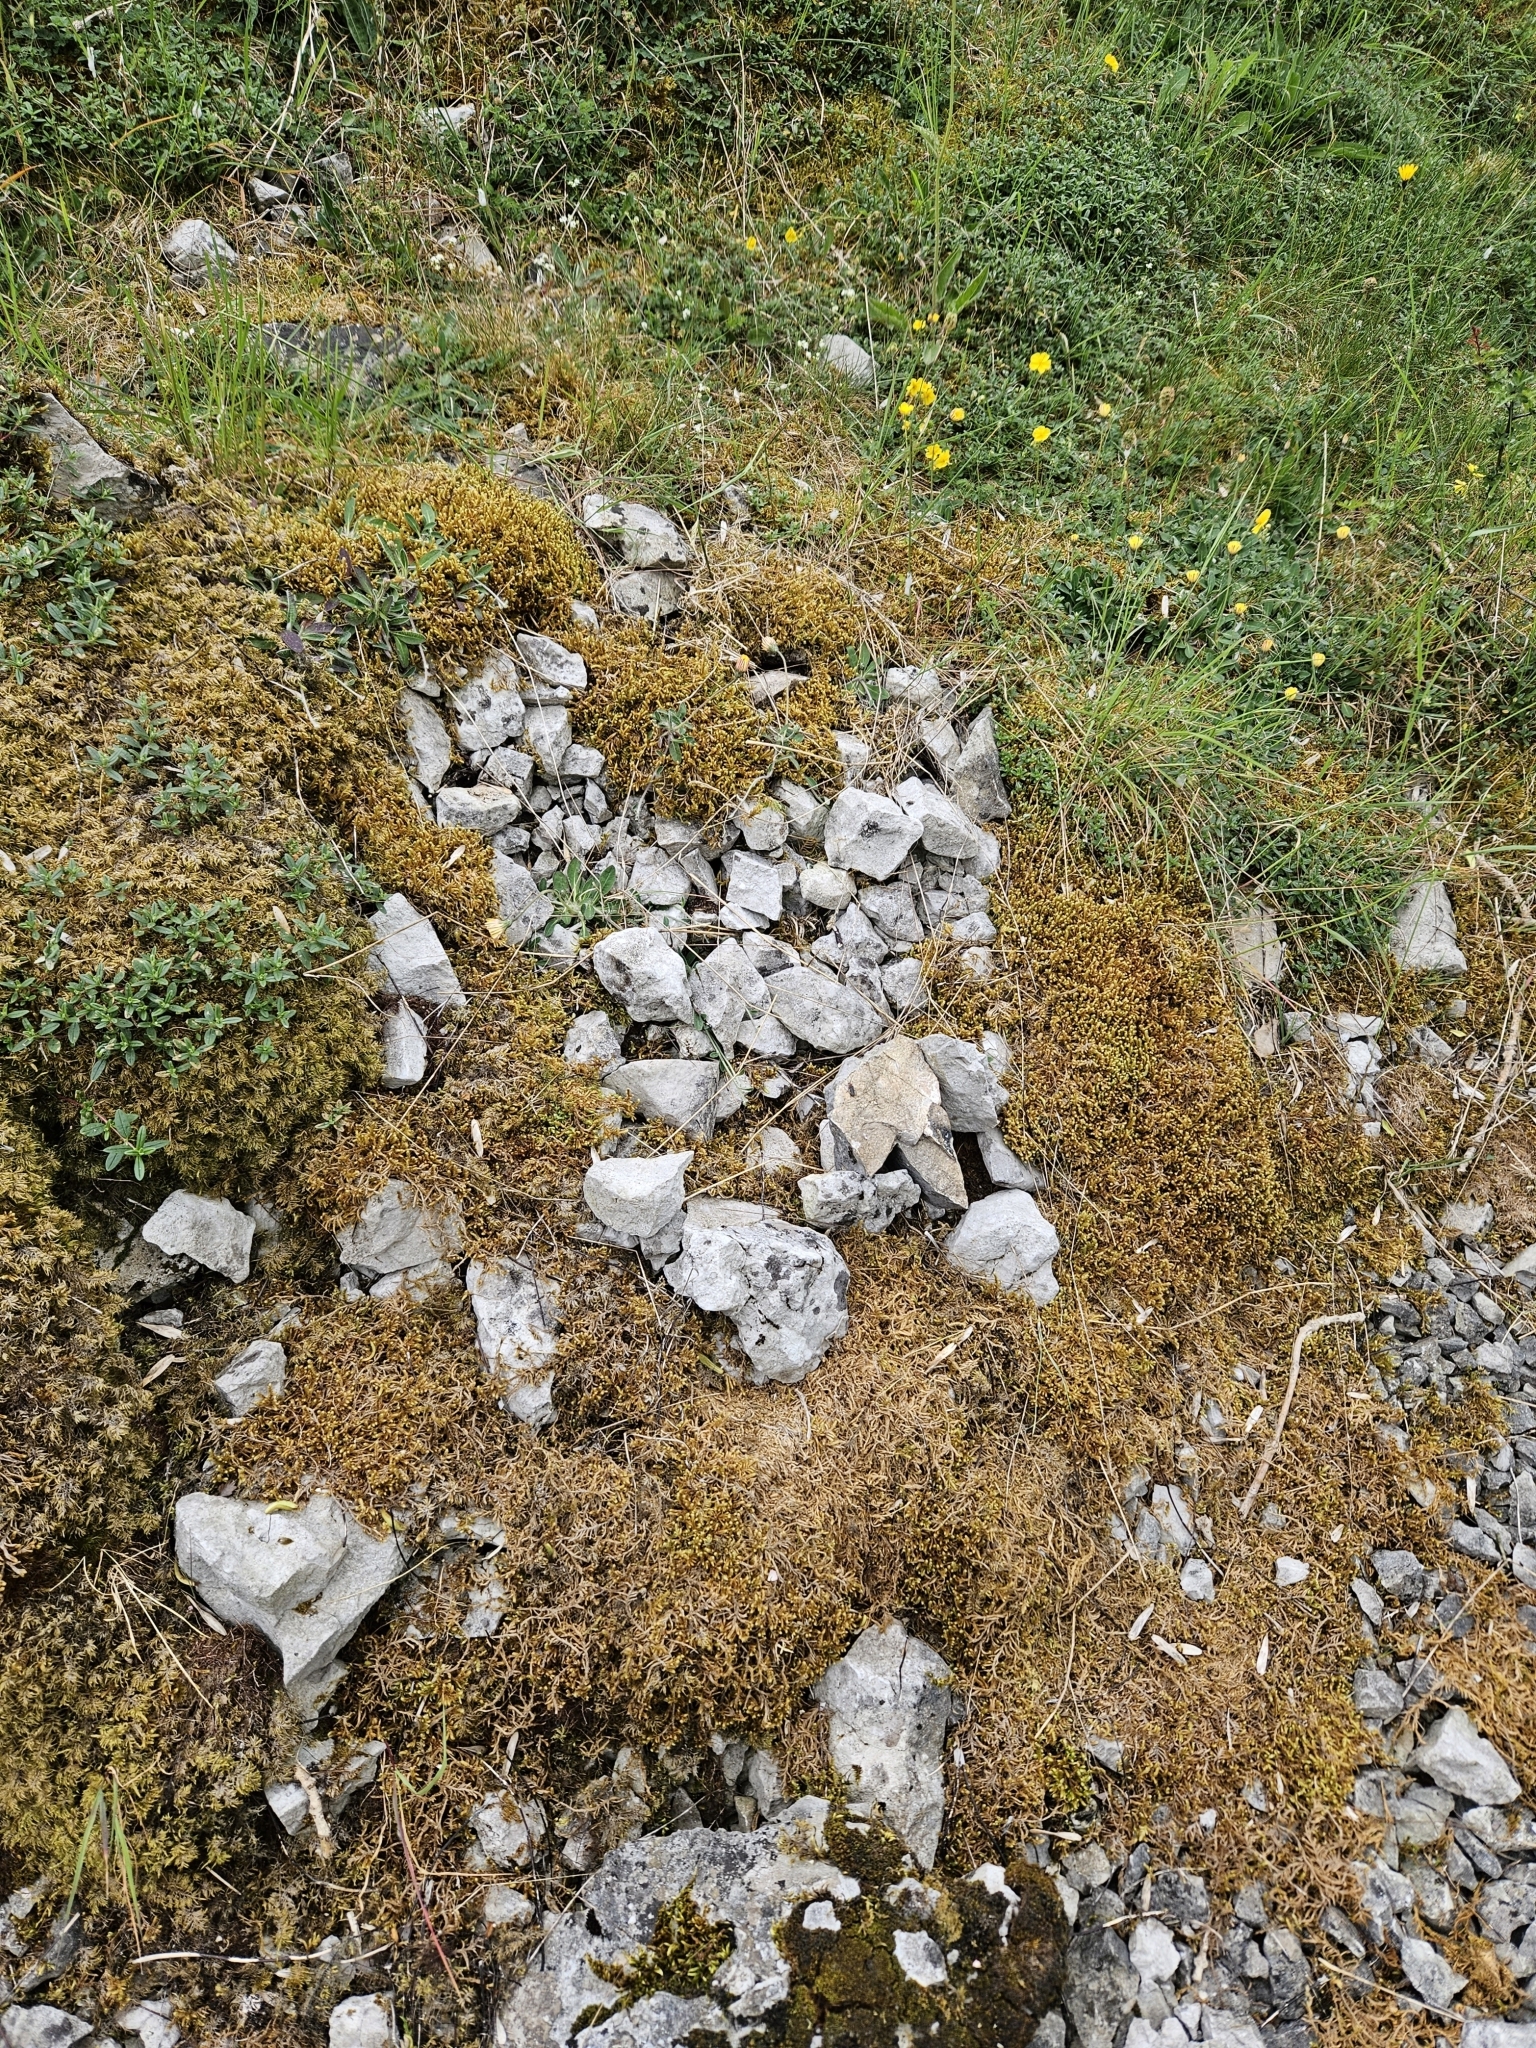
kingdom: Plantae
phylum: Bryophyta
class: Bryopsida
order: Hypnales
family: Rhytidiaceae
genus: Rhytidium
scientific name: Rhytidium rugosum
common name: Wrinkle-leaved moss
